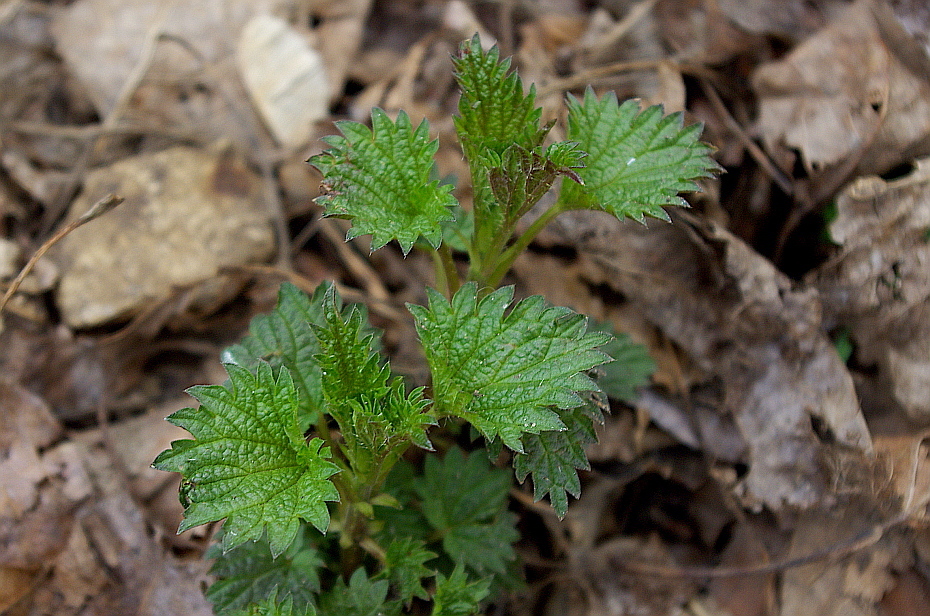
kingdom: Plantae
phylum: Tracheophyta
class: Magnoliopsida
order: Rosales
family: Urticaceae
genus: Urtica
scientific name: Urtica dioica
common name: Common nettle
